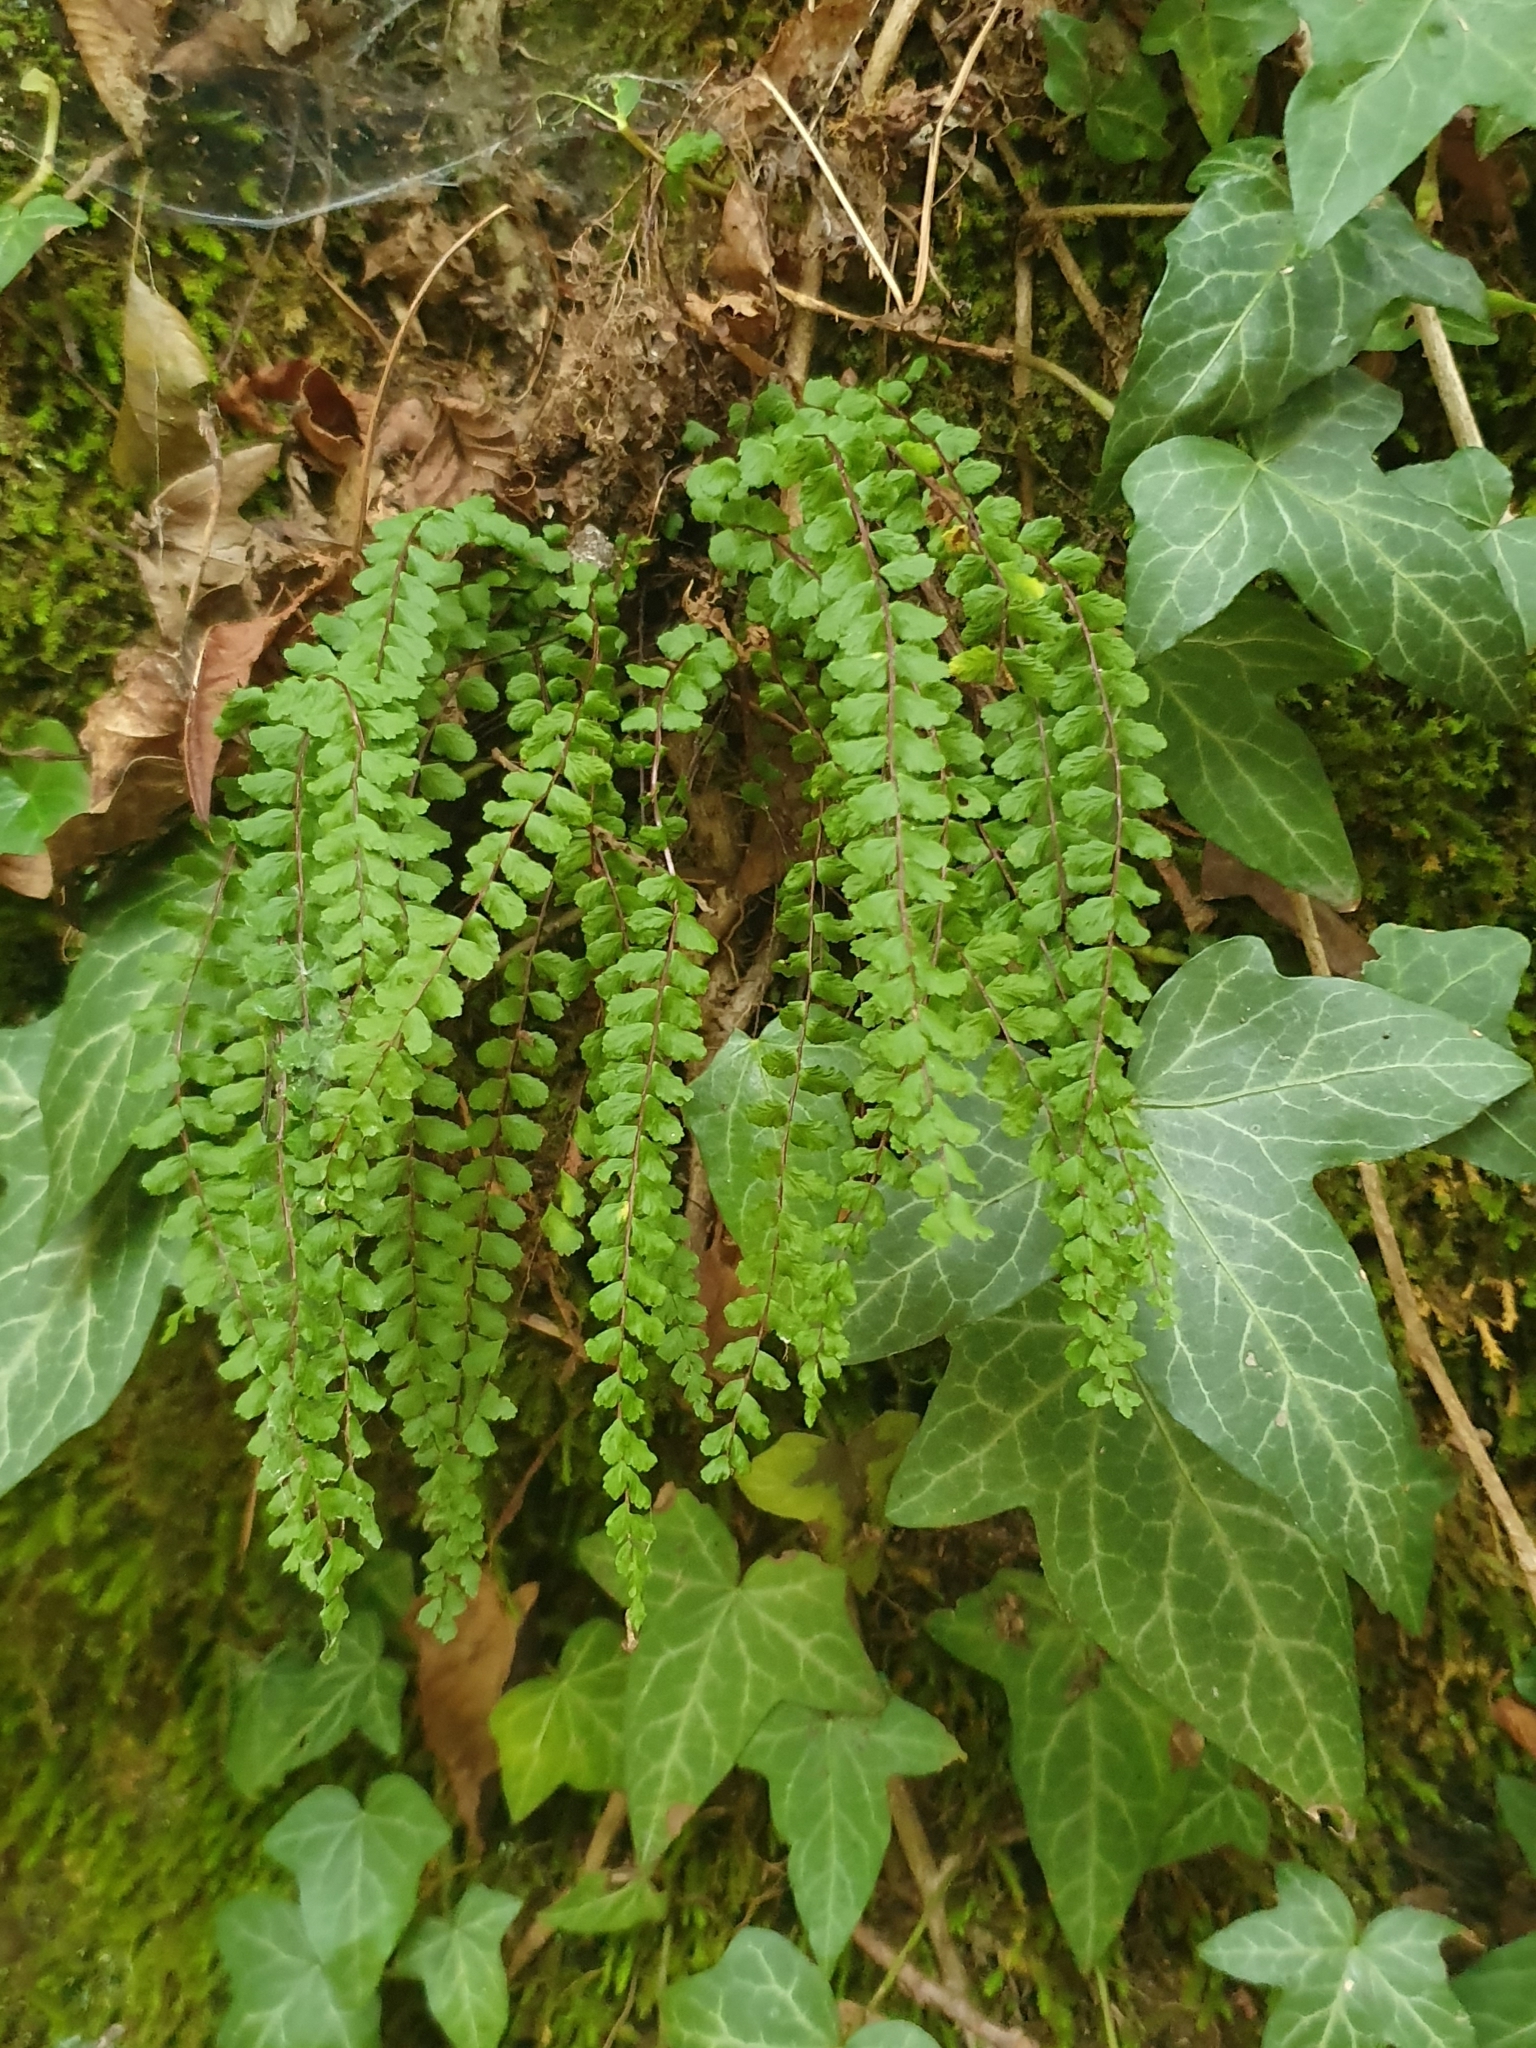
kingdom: Plantae
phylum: Tracheophyta
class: Polypodiopsida
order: Polypodiales
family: Aspleniaceae
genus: Asplenium
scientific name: Asplenium trichomanes
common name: Maidenhair spleenwort
